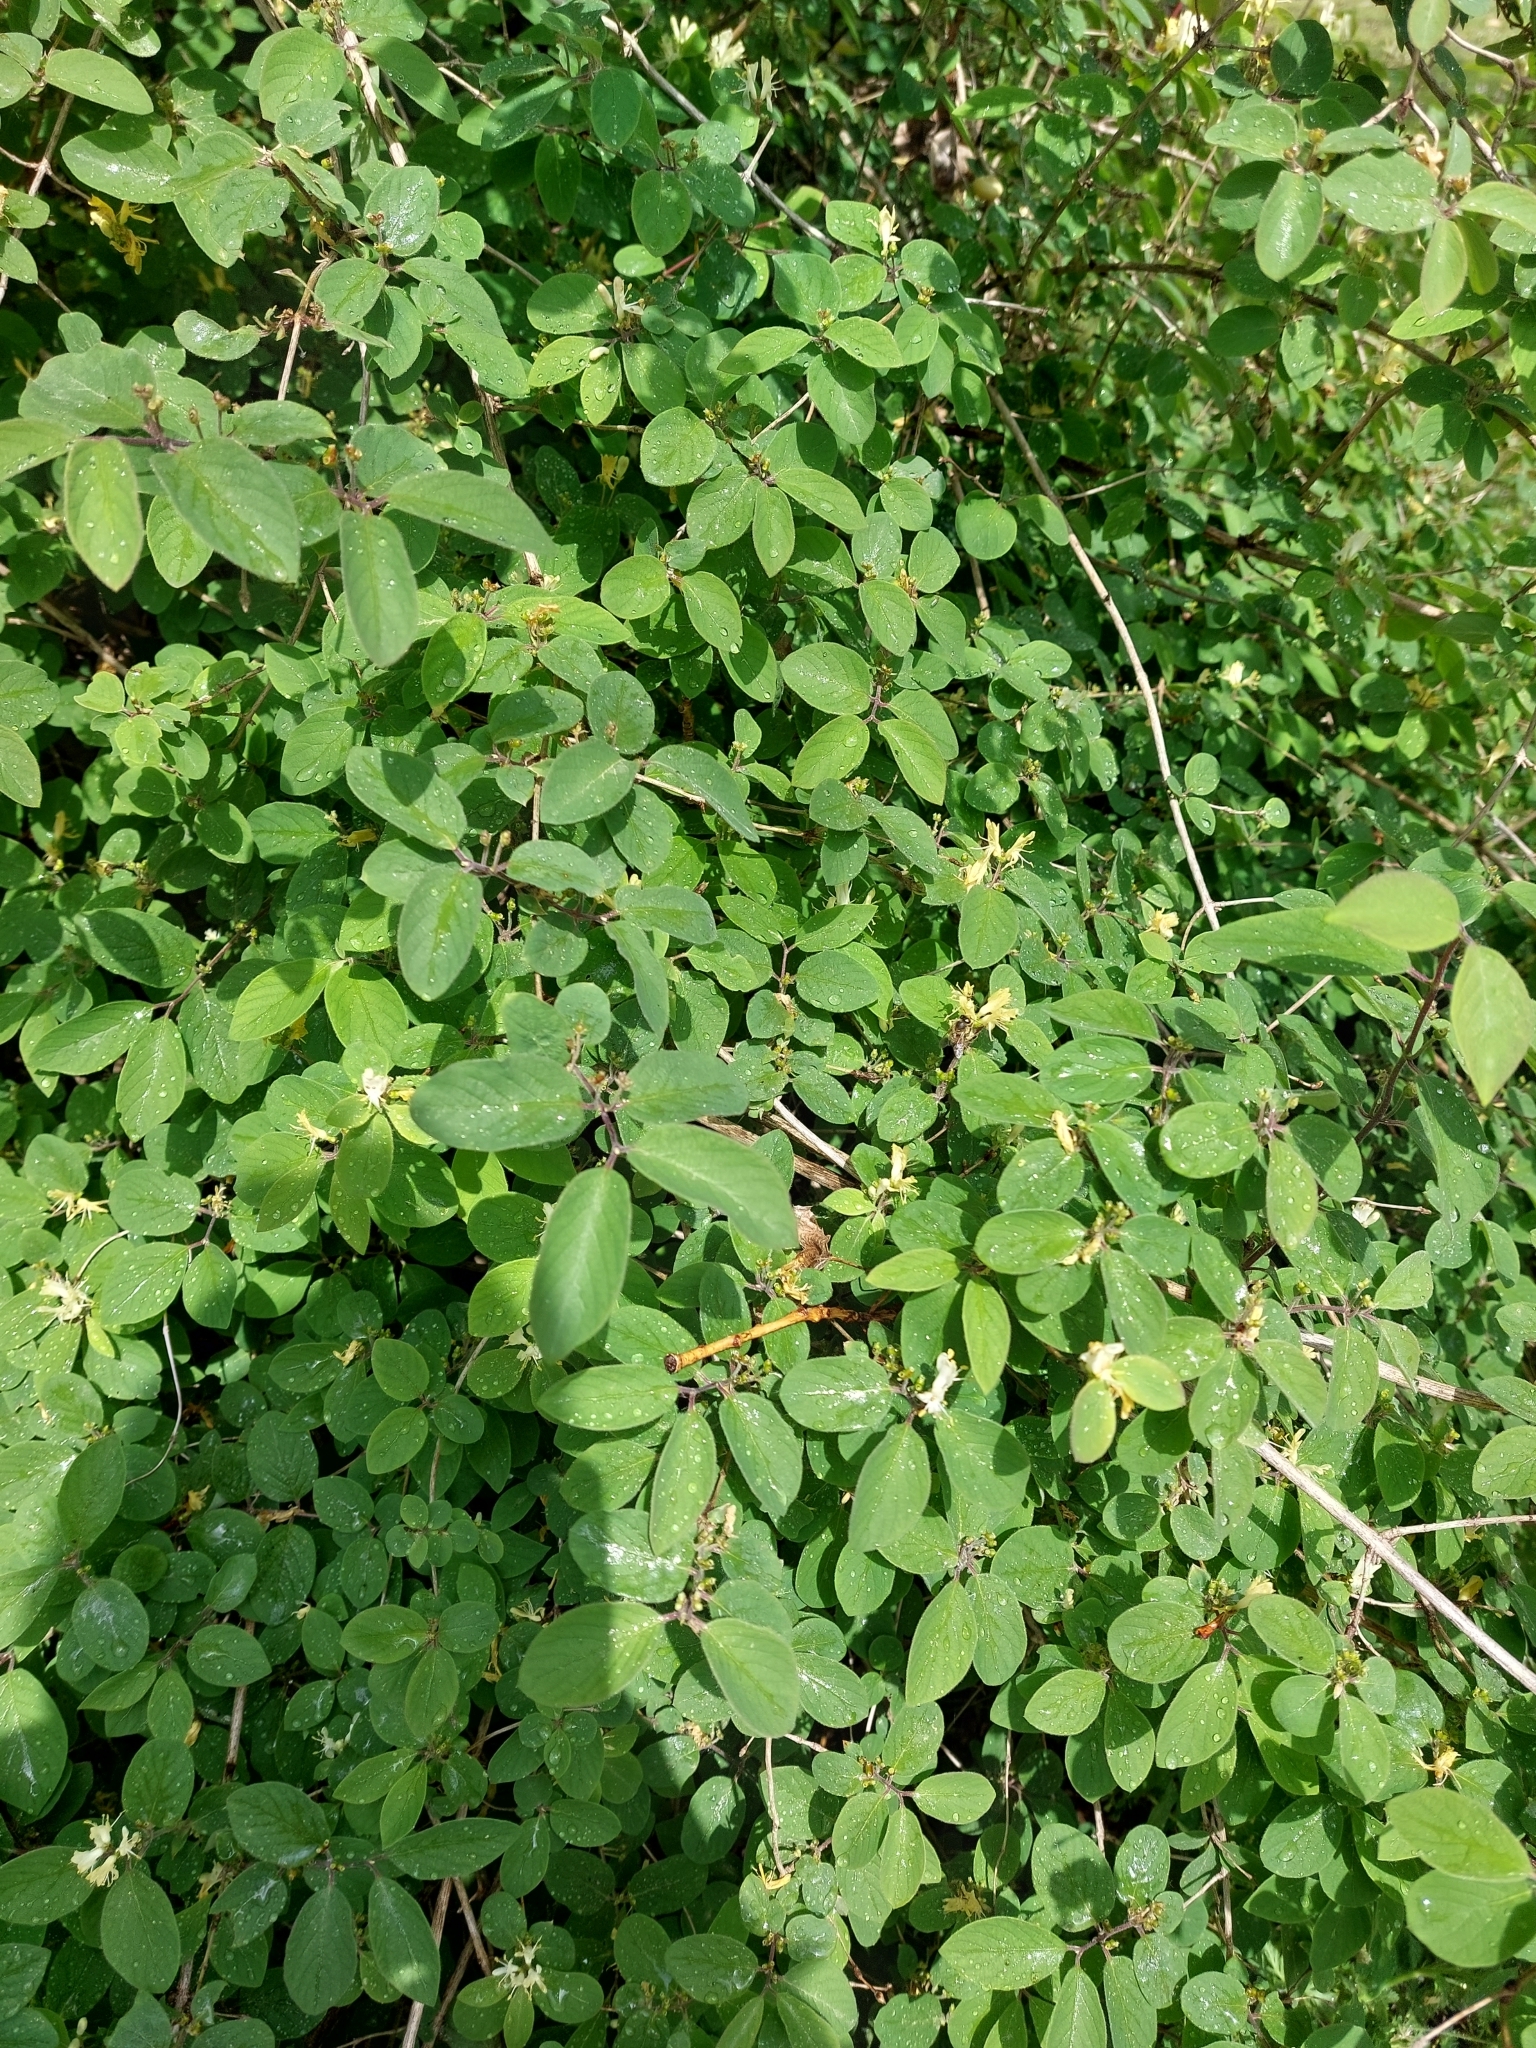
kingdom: Plantae
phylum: Tracheophyta
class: Magnoliopsida
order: Dipsacales
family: Caprifoliaceae
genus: Lonicera
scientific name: Lonicera xylosteum
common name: Fly honeysuckle
